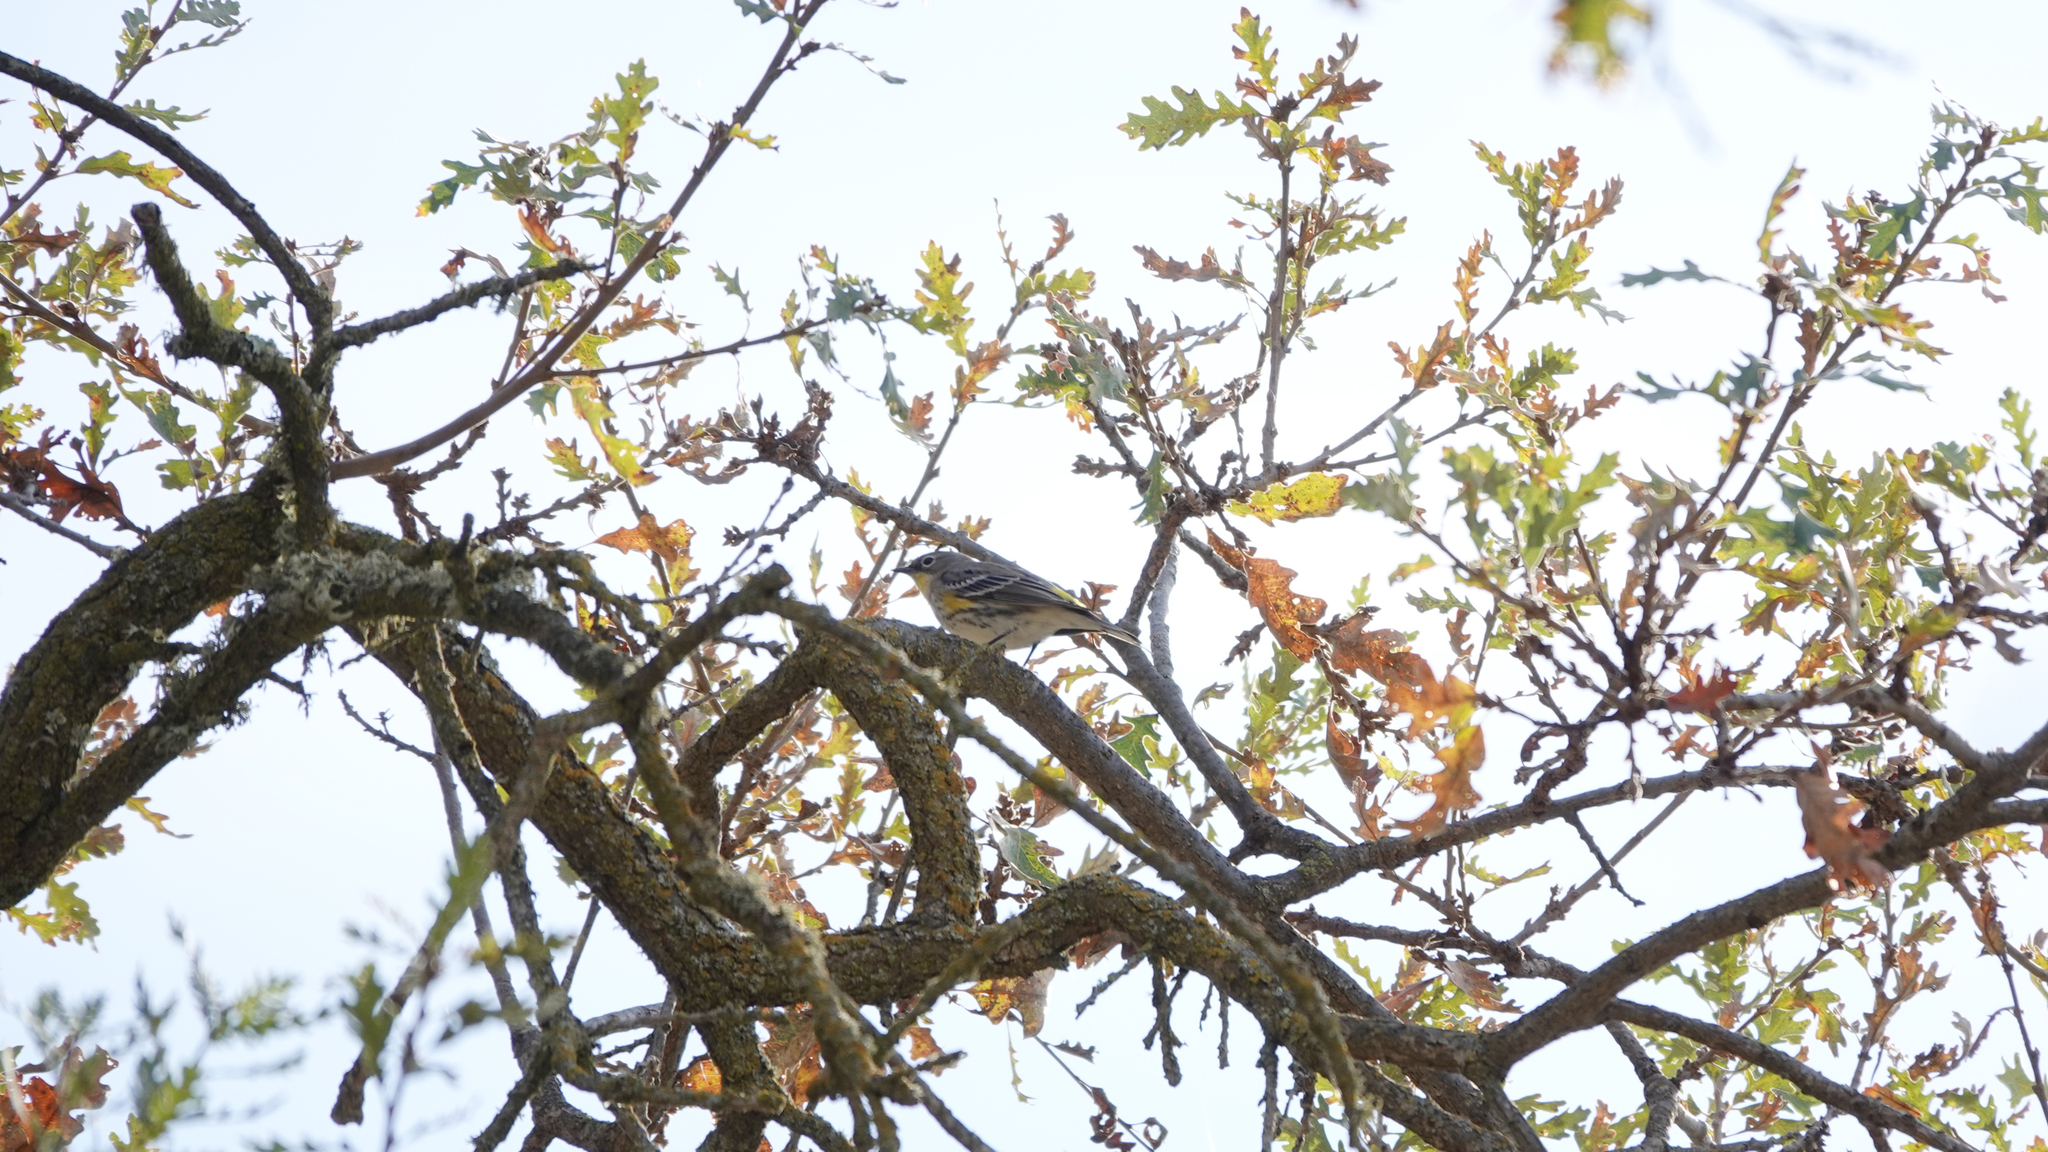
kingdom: Animalia
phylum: Chordata
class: Aves
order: Passeriformes
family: Parulidae
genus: Setophaga
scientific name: Setophaga coronata
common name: Myrtle warbler
